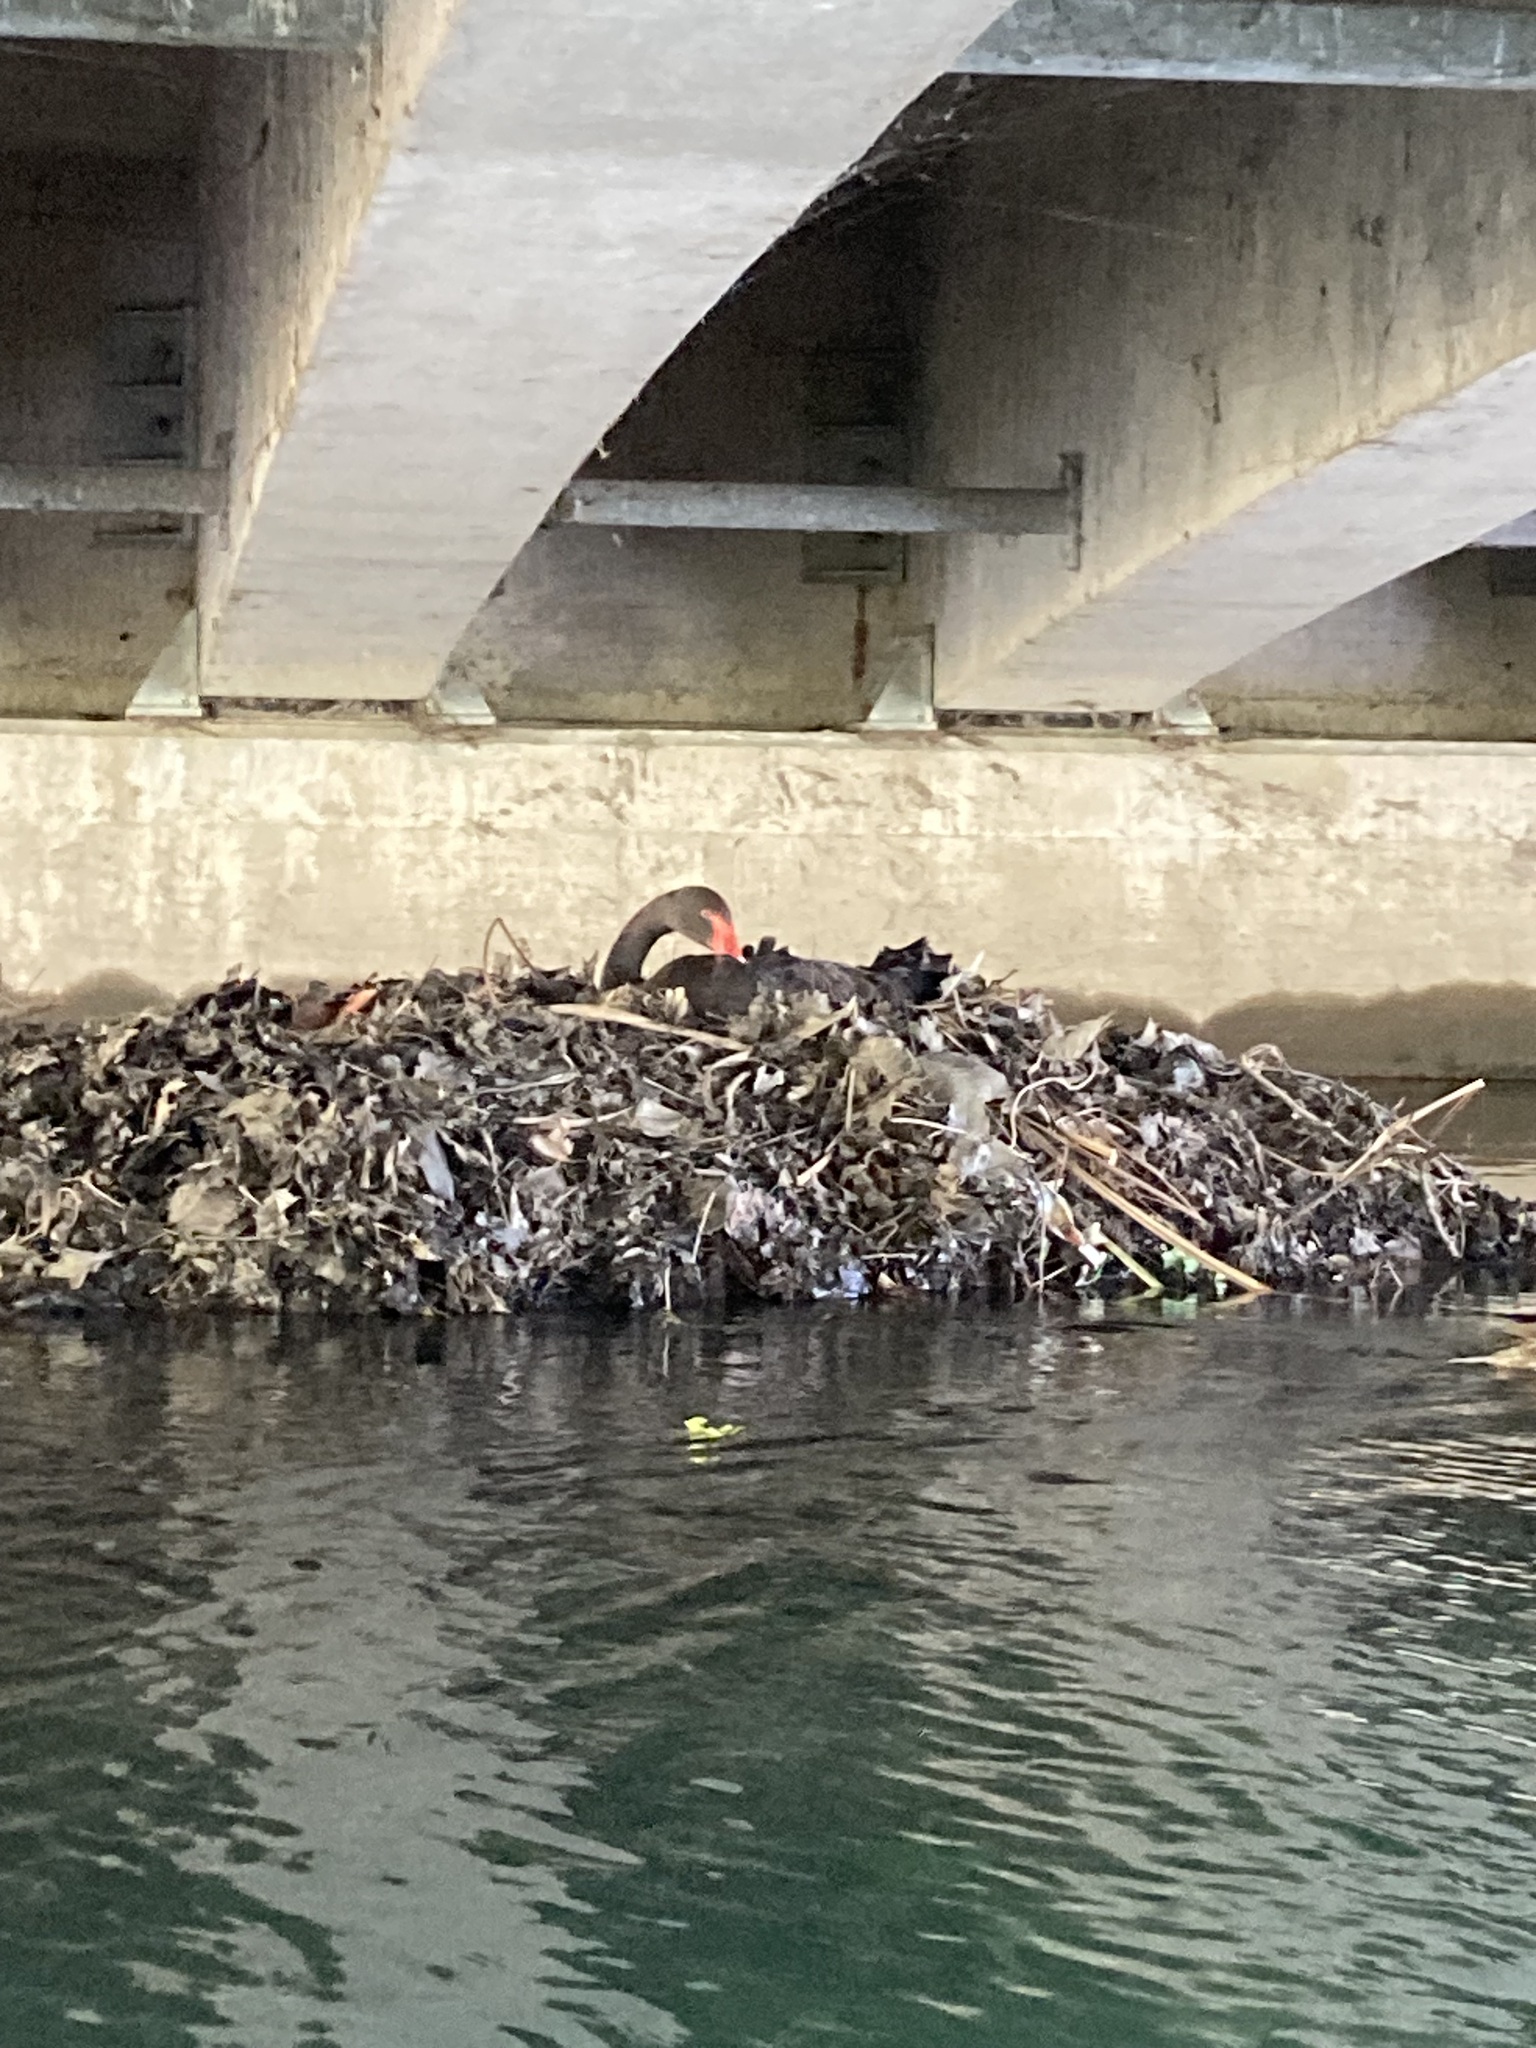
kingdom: Animalia
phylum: Chordata
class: Aves
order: Anseriformes
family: Anatidae
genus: Cygnus
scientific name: Cygnus atratus
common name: Black swan
